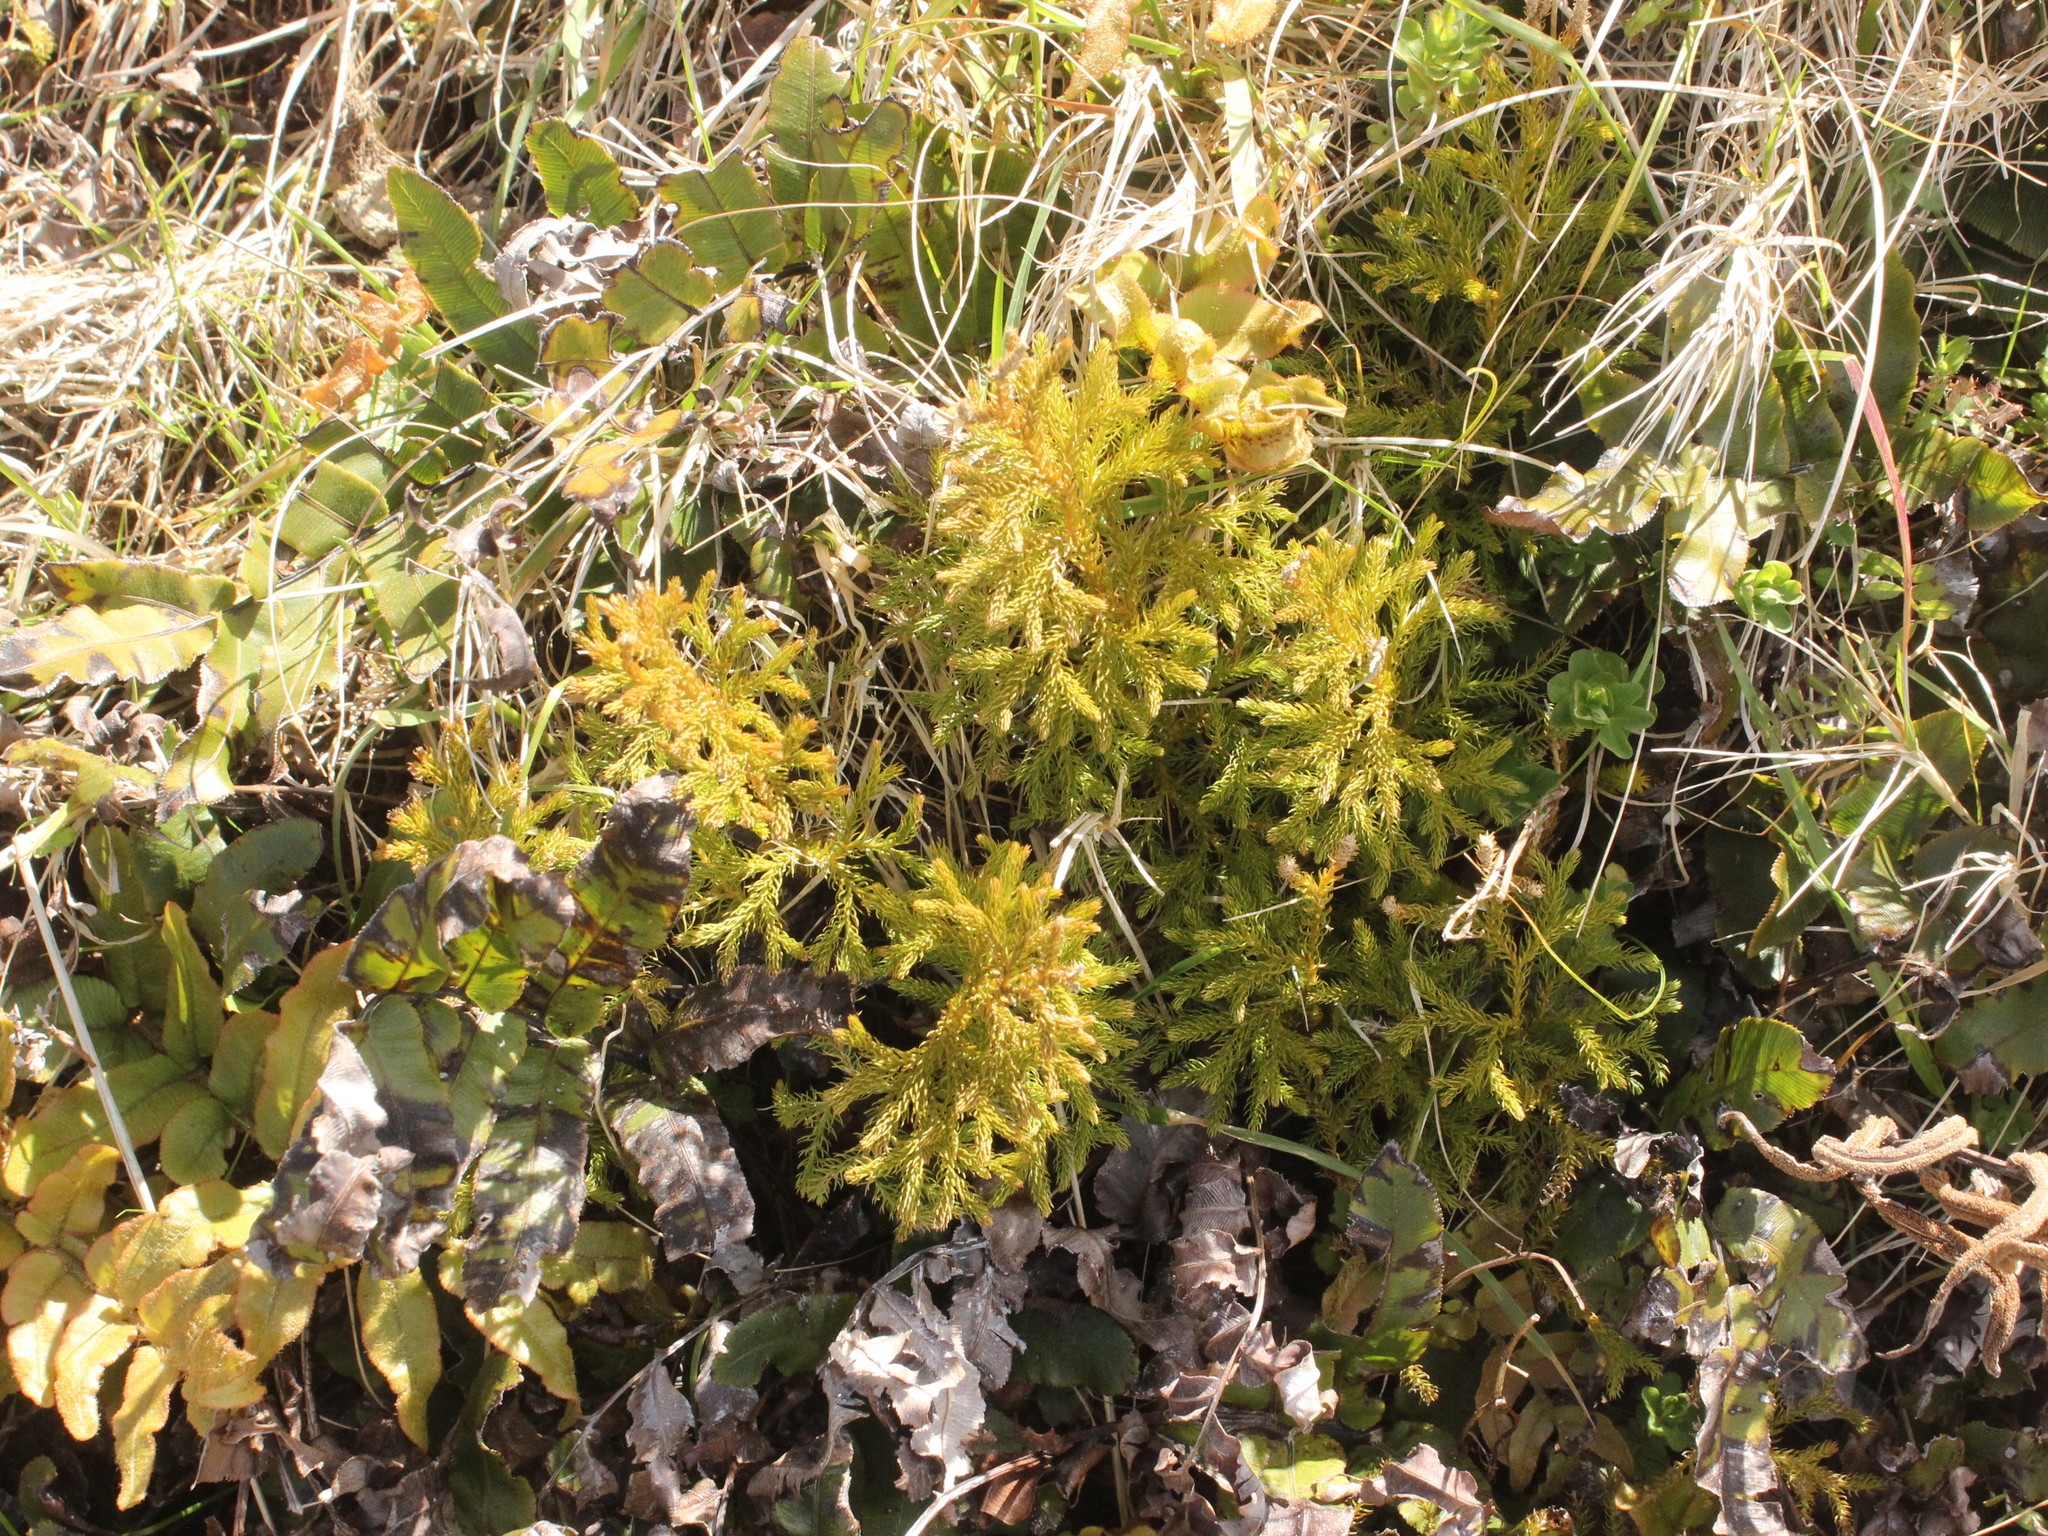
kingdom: Plantae
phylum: Tracheophyta
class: Lycopodiopsida
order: Lycopodiales
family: Lycopodiaceae
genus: Austrolycopodium
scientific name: Austrolycopodium fastigiatum
